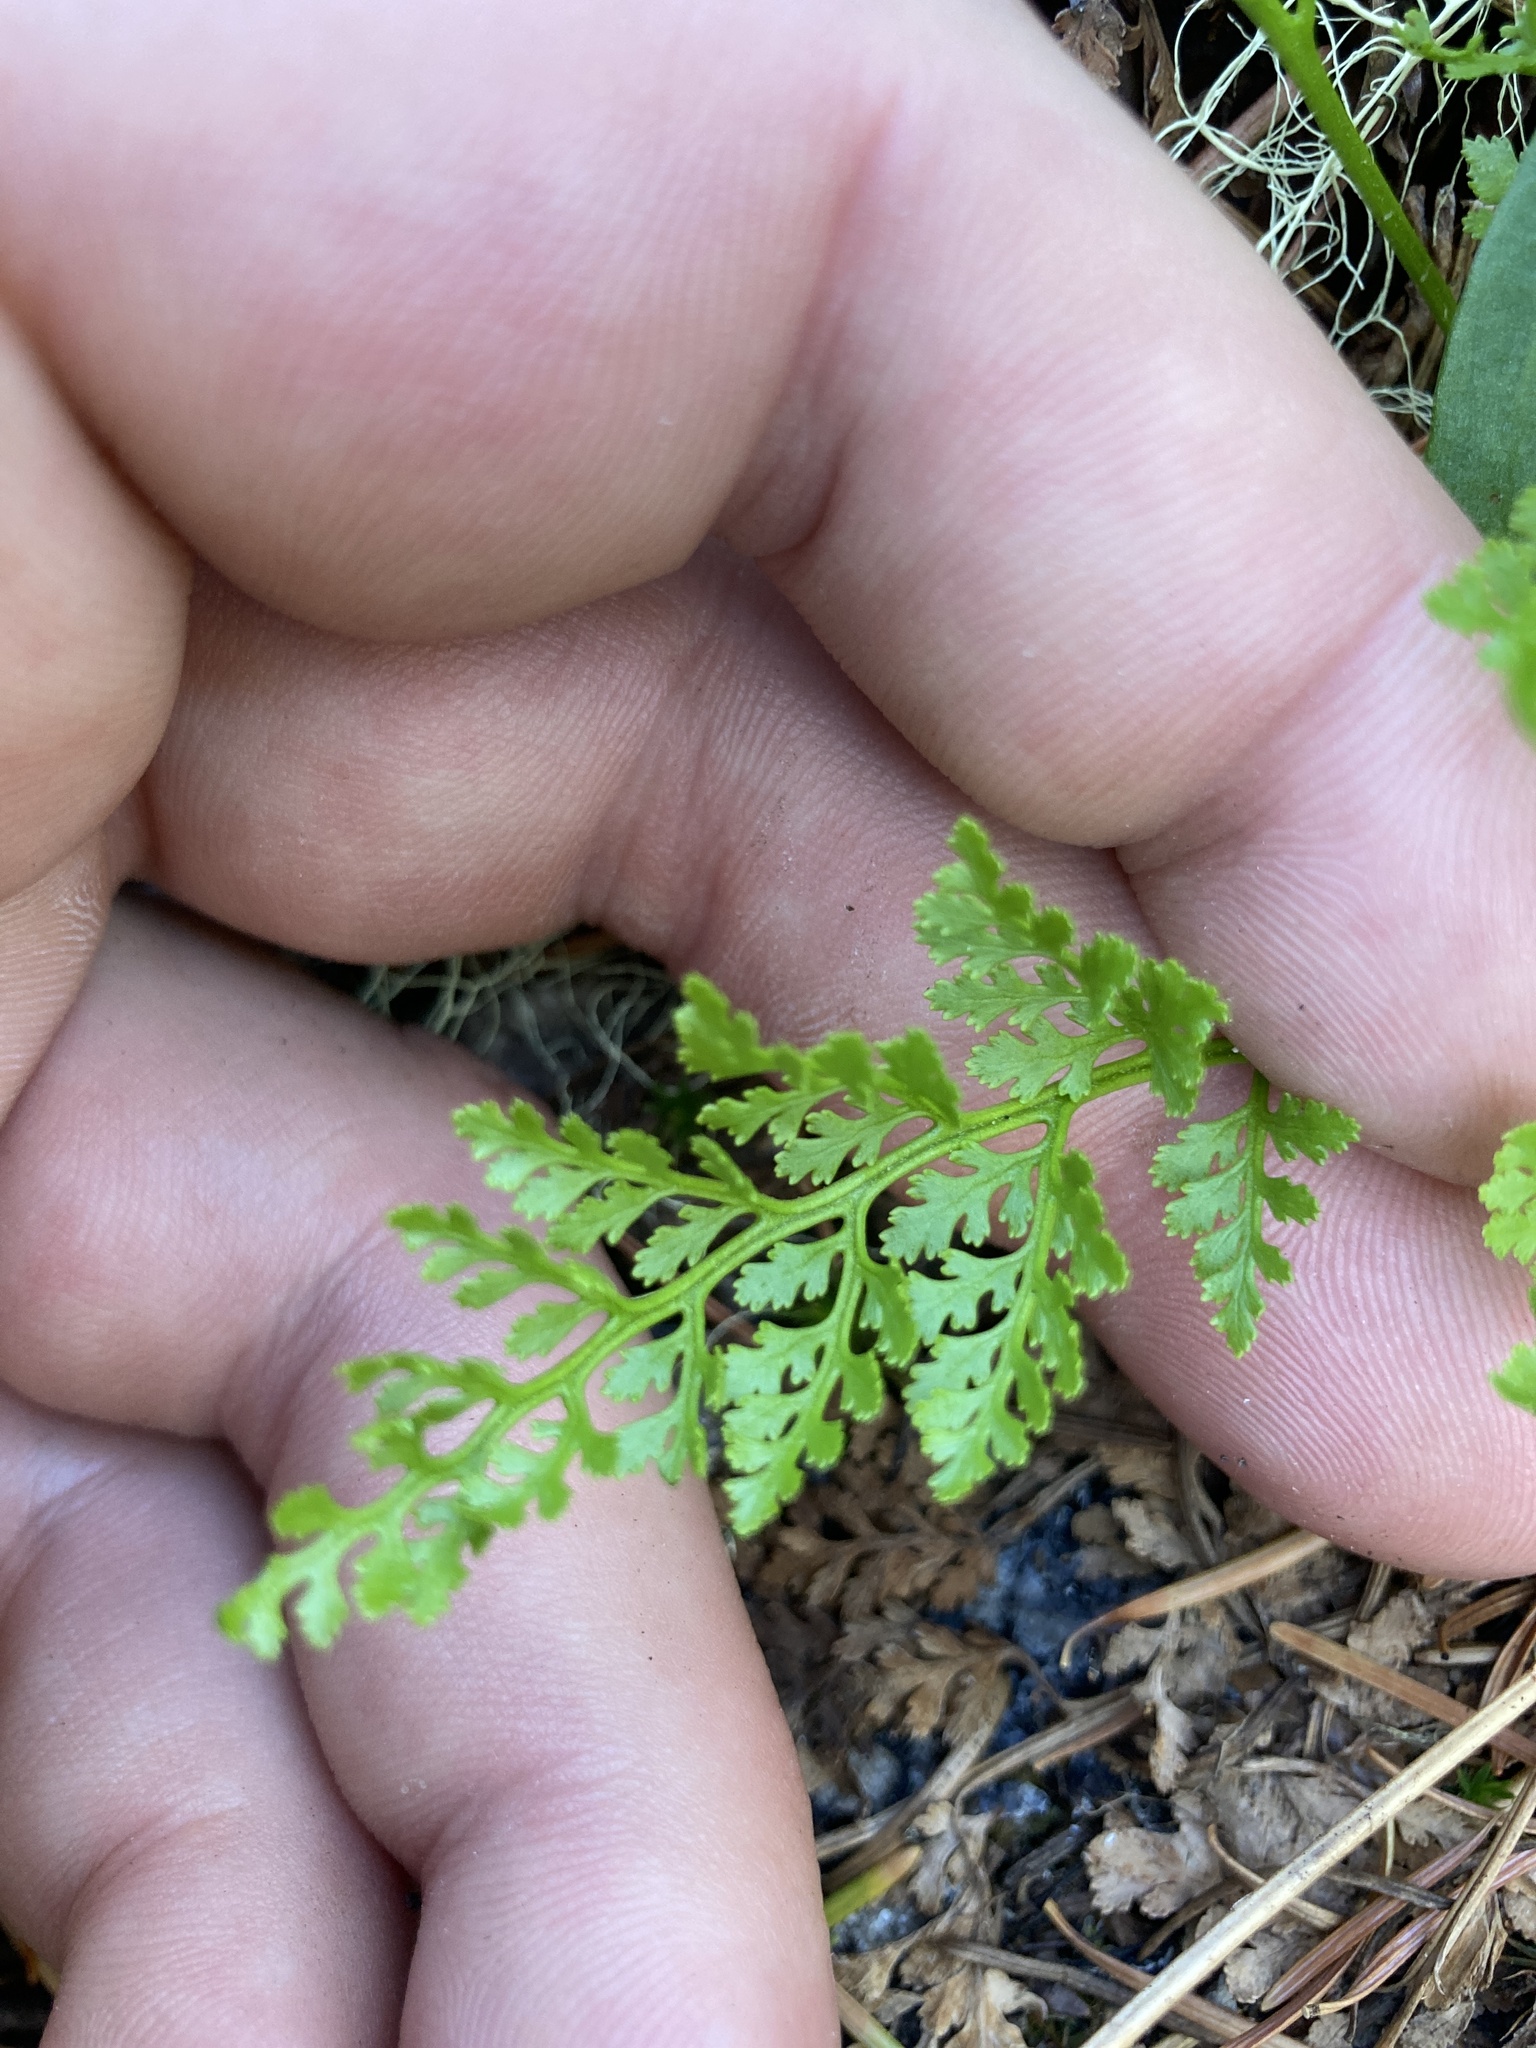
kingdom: Plantae
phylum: Tracheophyta
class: Polypodiopsida
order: Polypodiales
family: Pteridaceae
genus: Cryptogramma
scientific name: Cryptogramma acrostichoides
